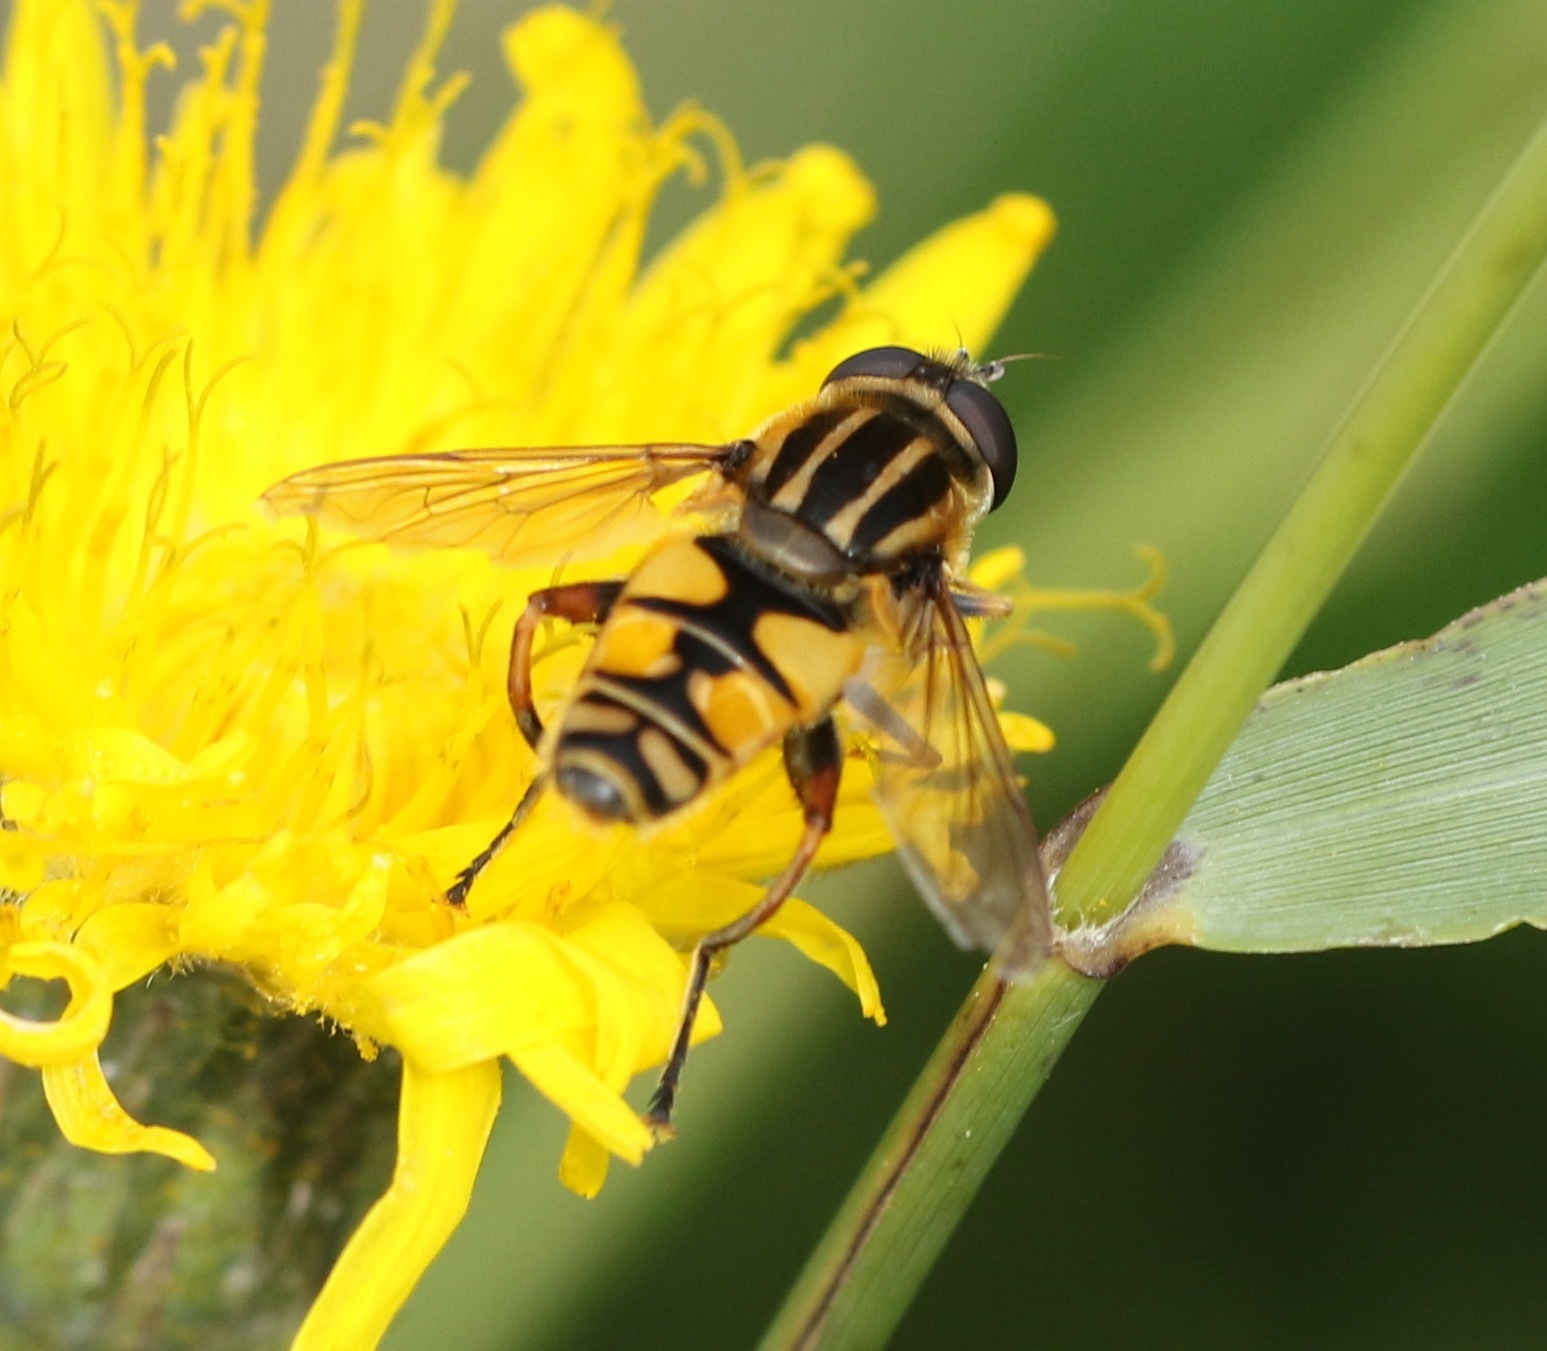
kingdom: Animalia
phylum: Arthropoda
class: Insecta
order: Diptera
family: Syrphidae
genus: Helophilus
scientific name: Helophilus pendulus
